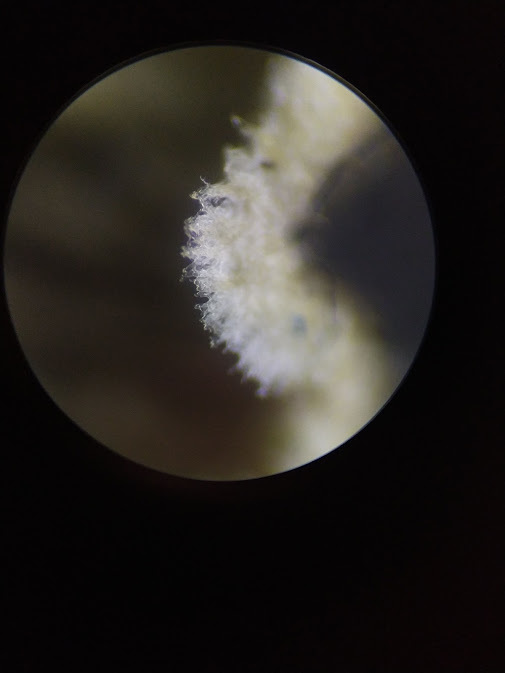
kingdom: Fungi
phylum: Basidiomycota
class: Agaricomycetes
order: Amylocorticiales
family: Amylocorticiaceae
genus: Plicaturopsis
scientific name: Plicaturopsis crispa
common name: Crimped gill
